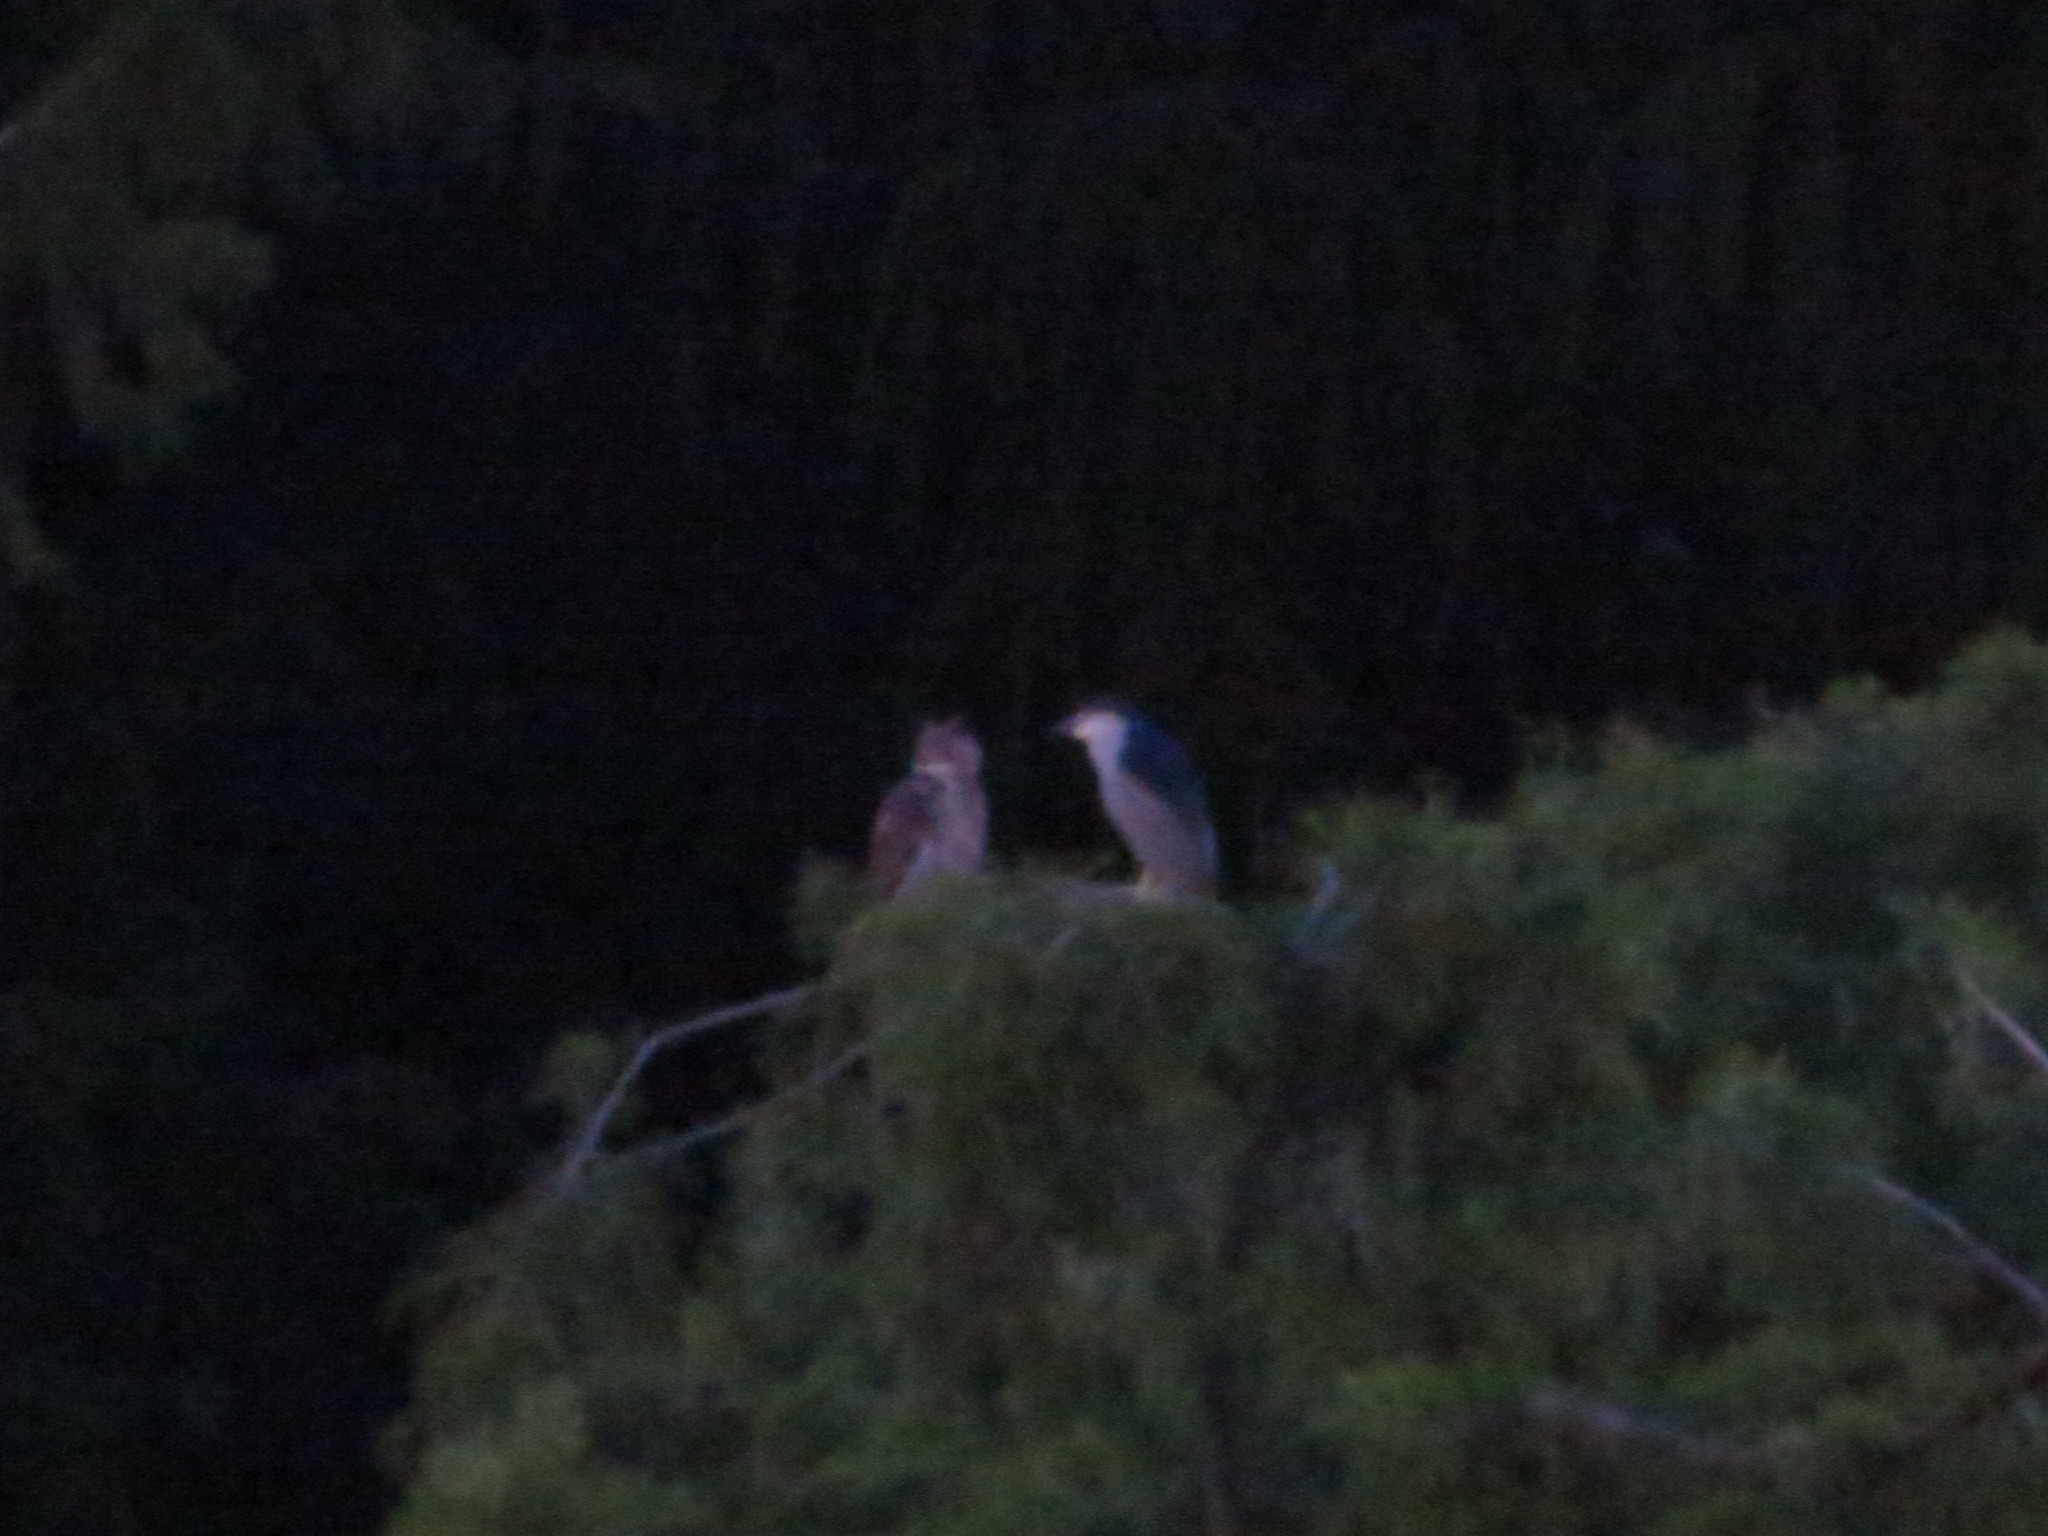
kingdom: Animalia
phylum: Chordata
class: Aves
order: Strigiformes
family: Strigidae
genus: Bubo
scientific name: Bubo virginianus
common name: Great horned owl
